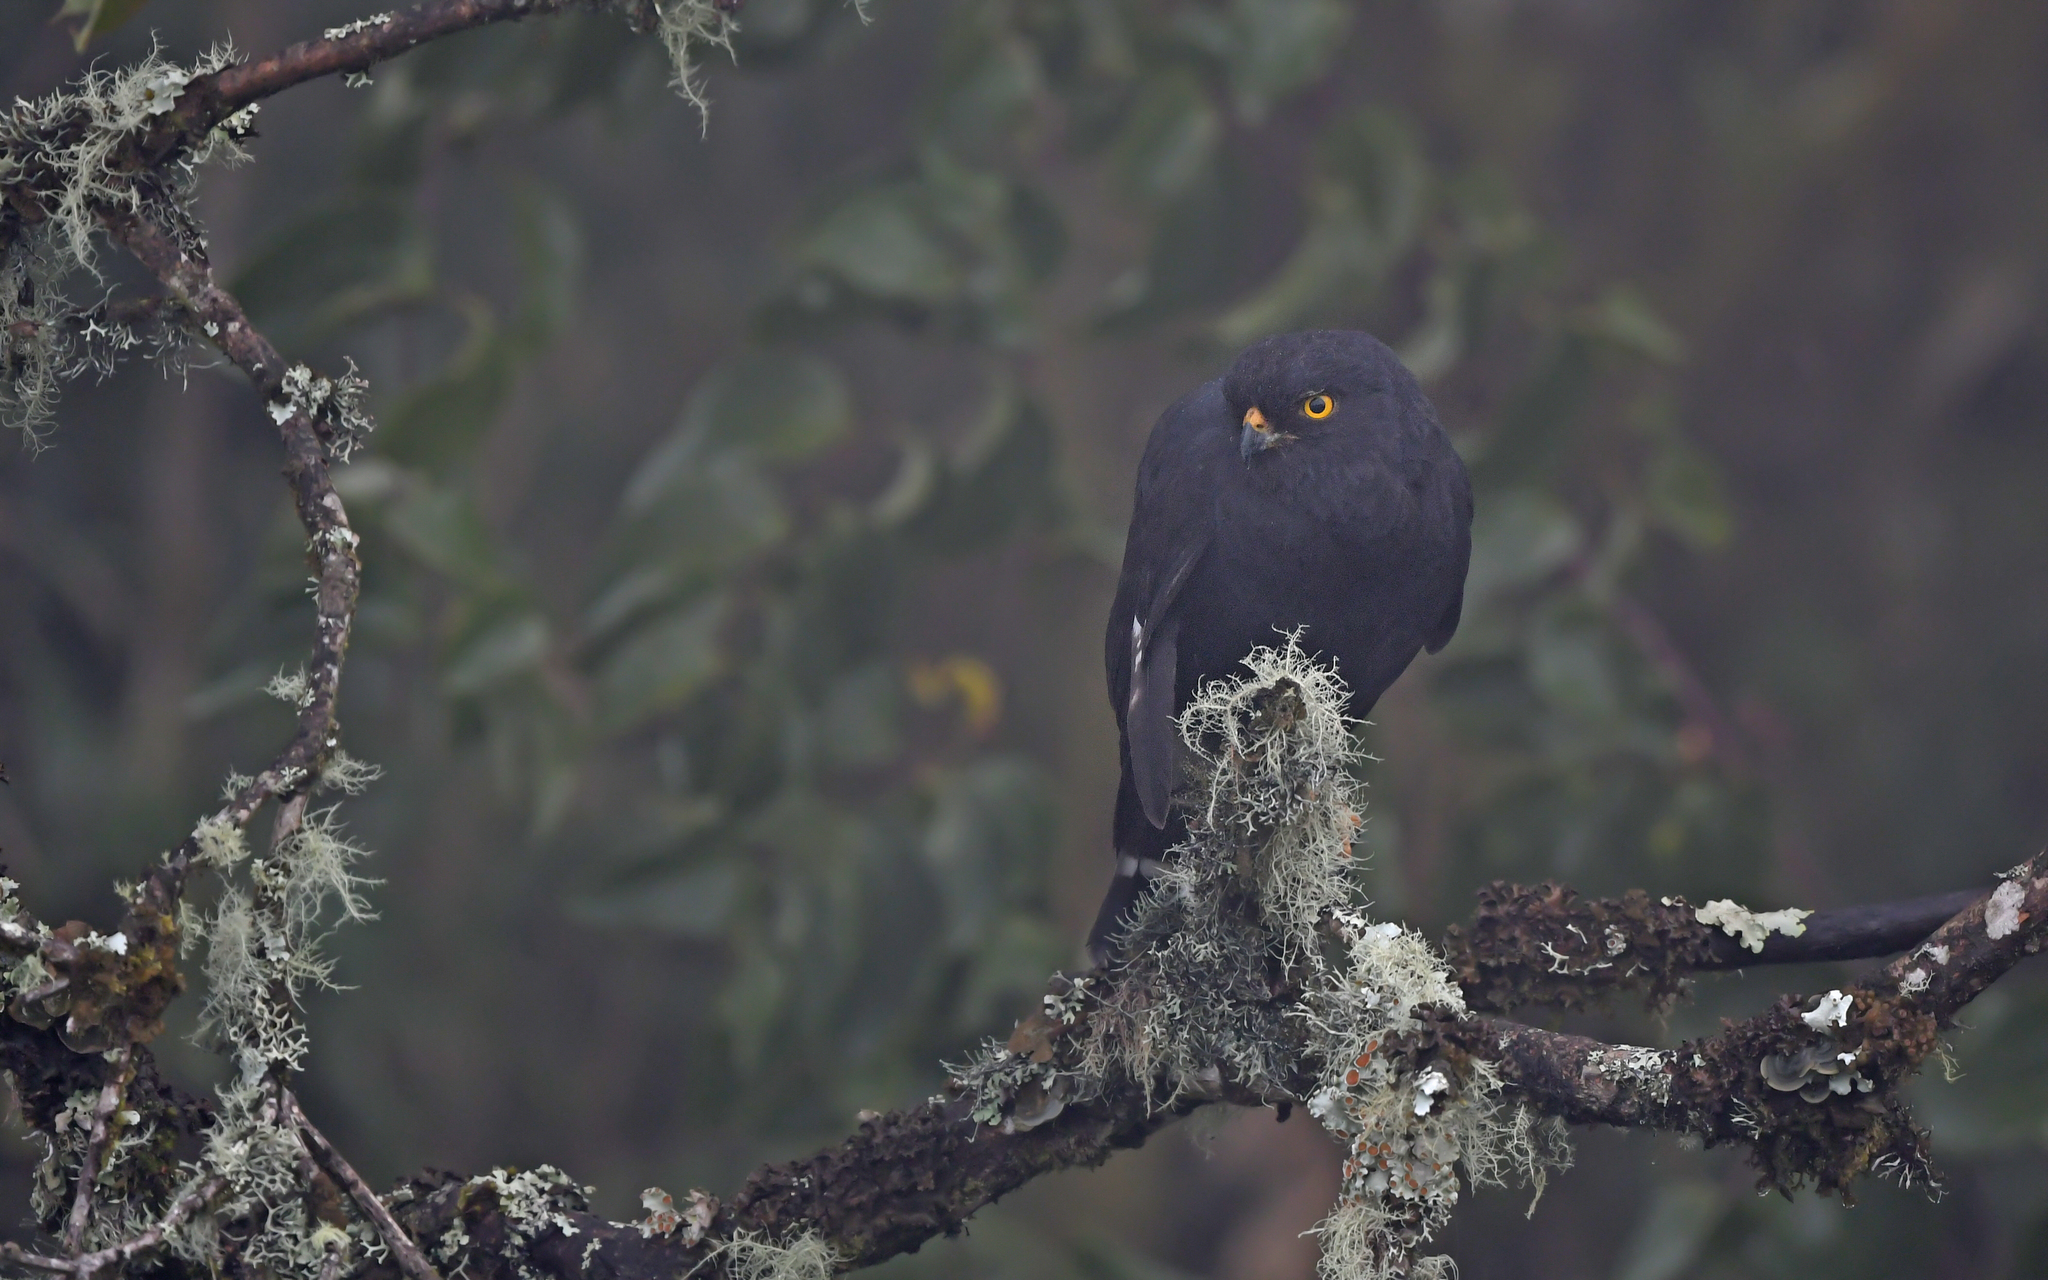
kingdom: Animalia
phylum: Chordata
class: Aves
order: Accipitriformes
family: Accipitridae
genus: Percnohierax
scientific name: Percnohierax leucorrhous
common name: White-rumped hawk
